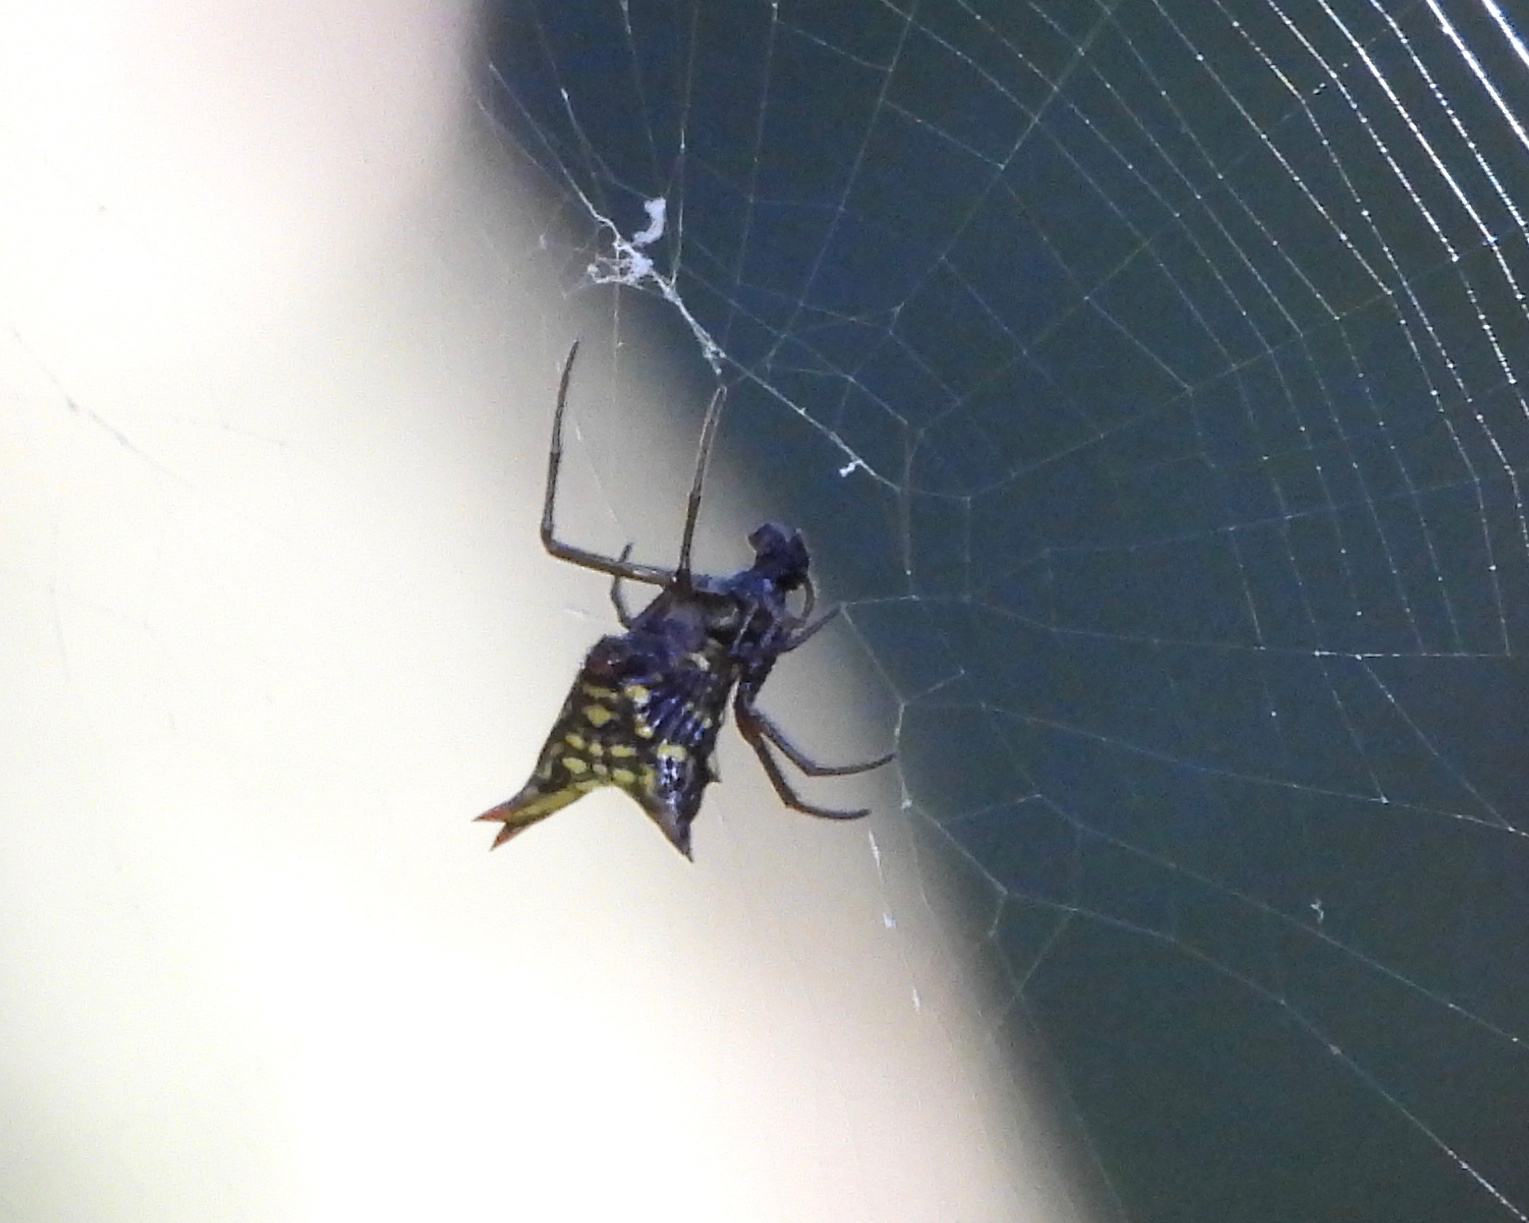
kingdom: Animalia
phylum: Arthropoda
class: Arachnida
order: Araneae
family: Araneidae
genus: Micrathena
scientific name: Micrathena lucasi
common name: Orb weavers
